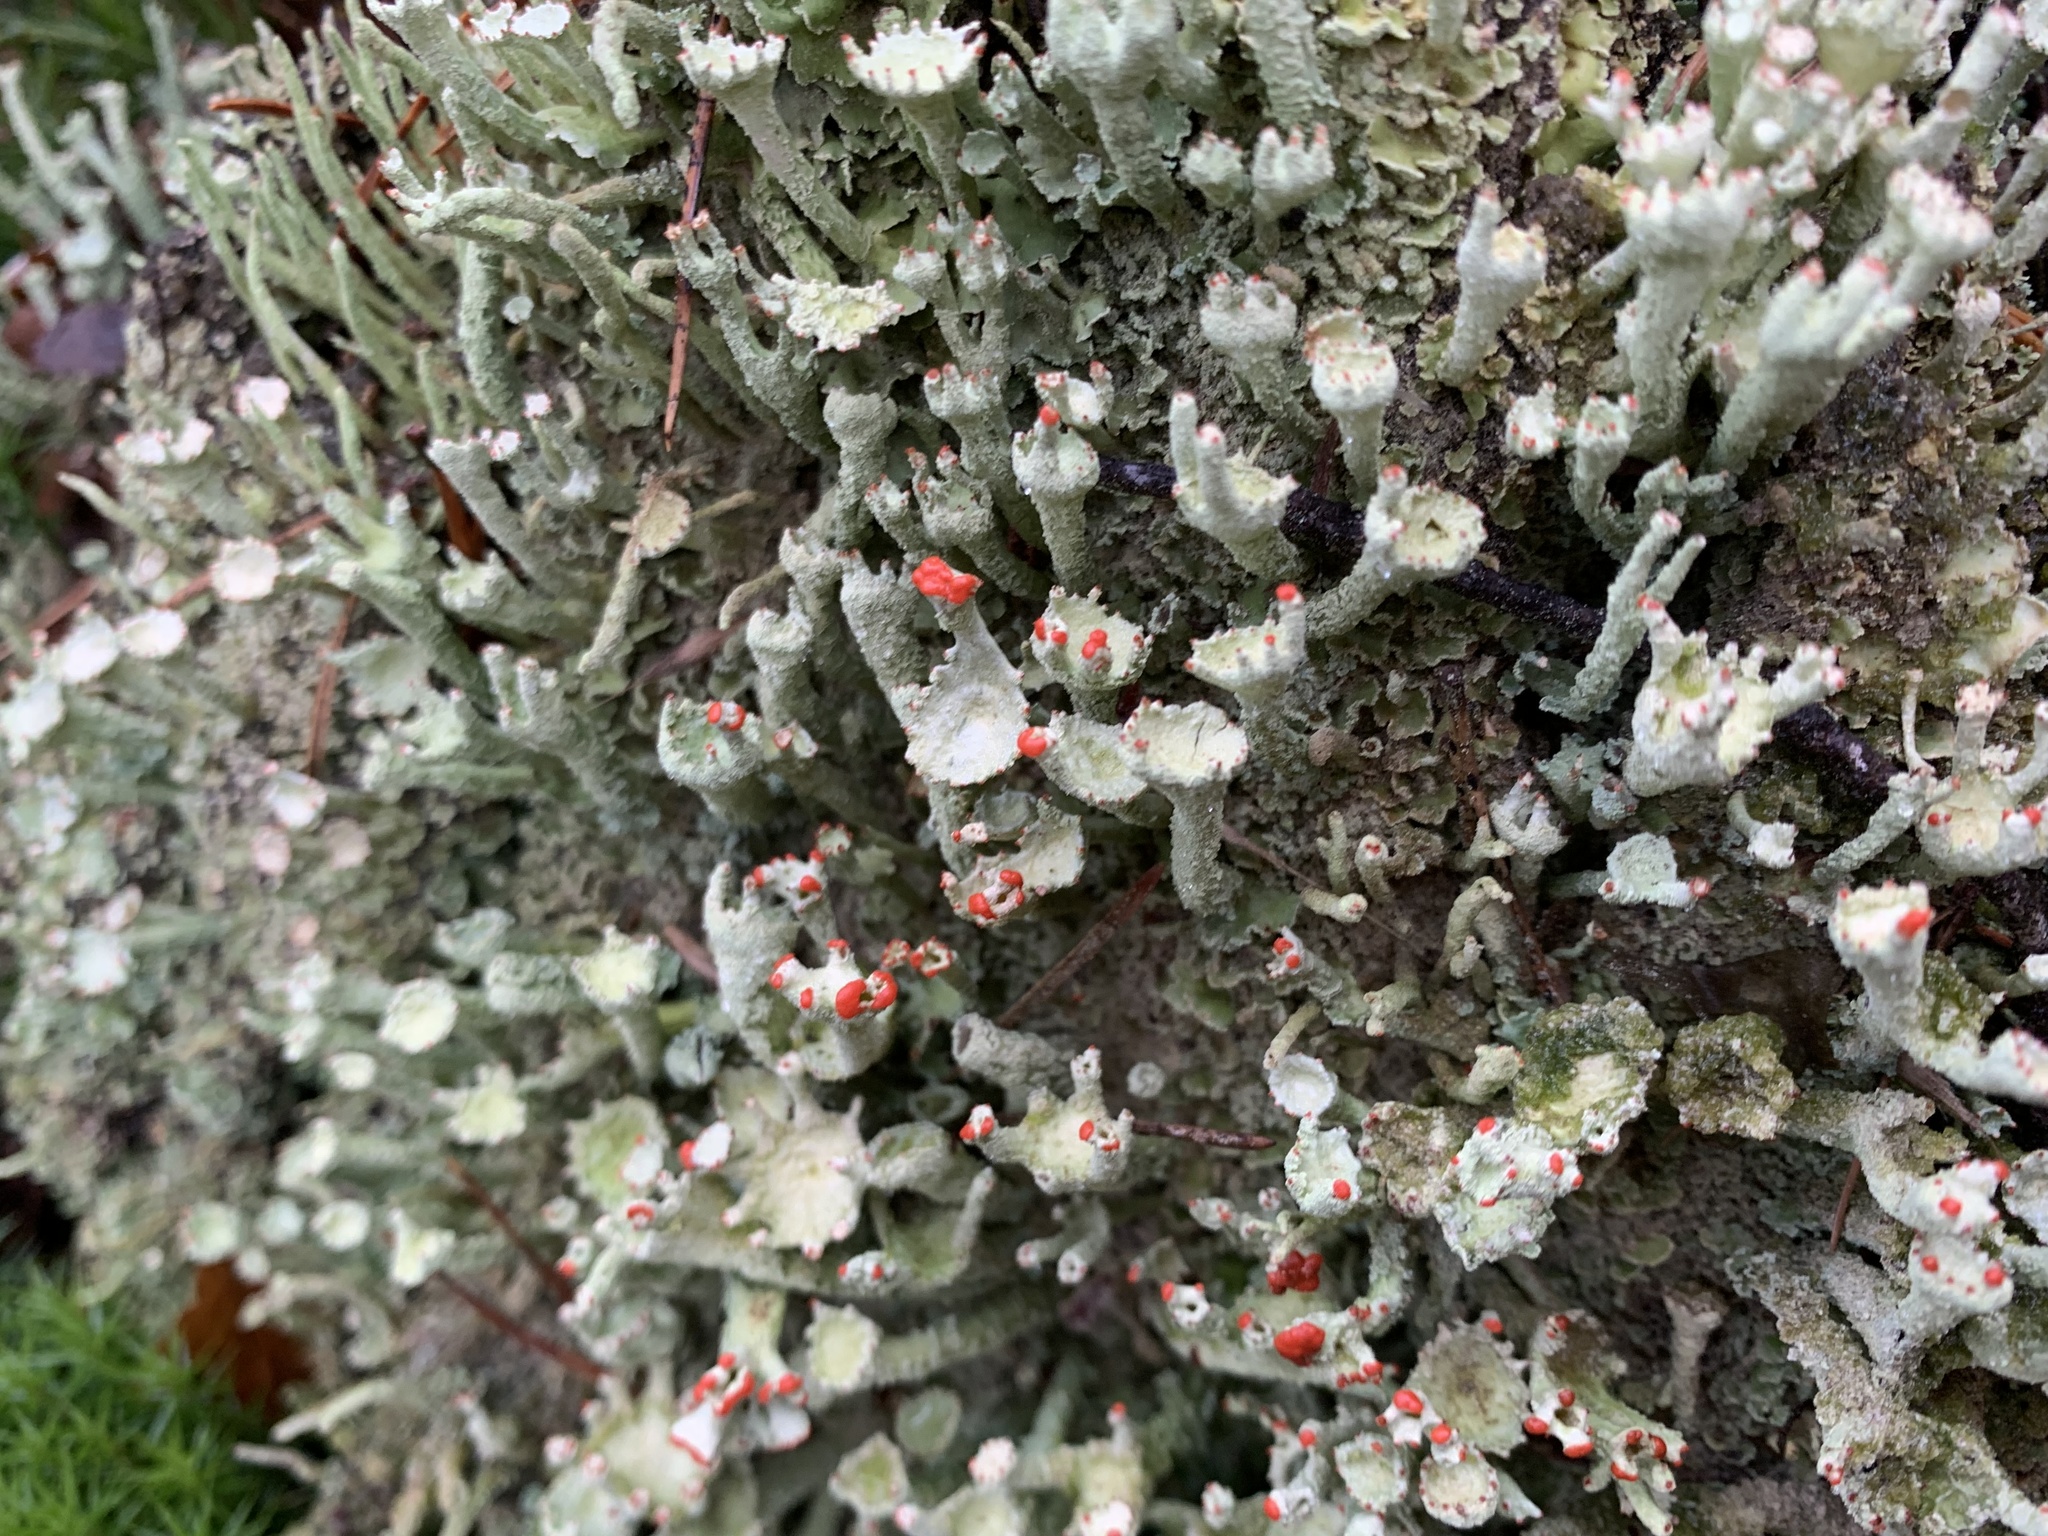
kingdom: Fungi
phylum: Ascomycota
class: Lecanoromycetes
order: Lecanorales
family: Cladoniaceae
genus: Cladonia
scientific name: Cladonia digitata
